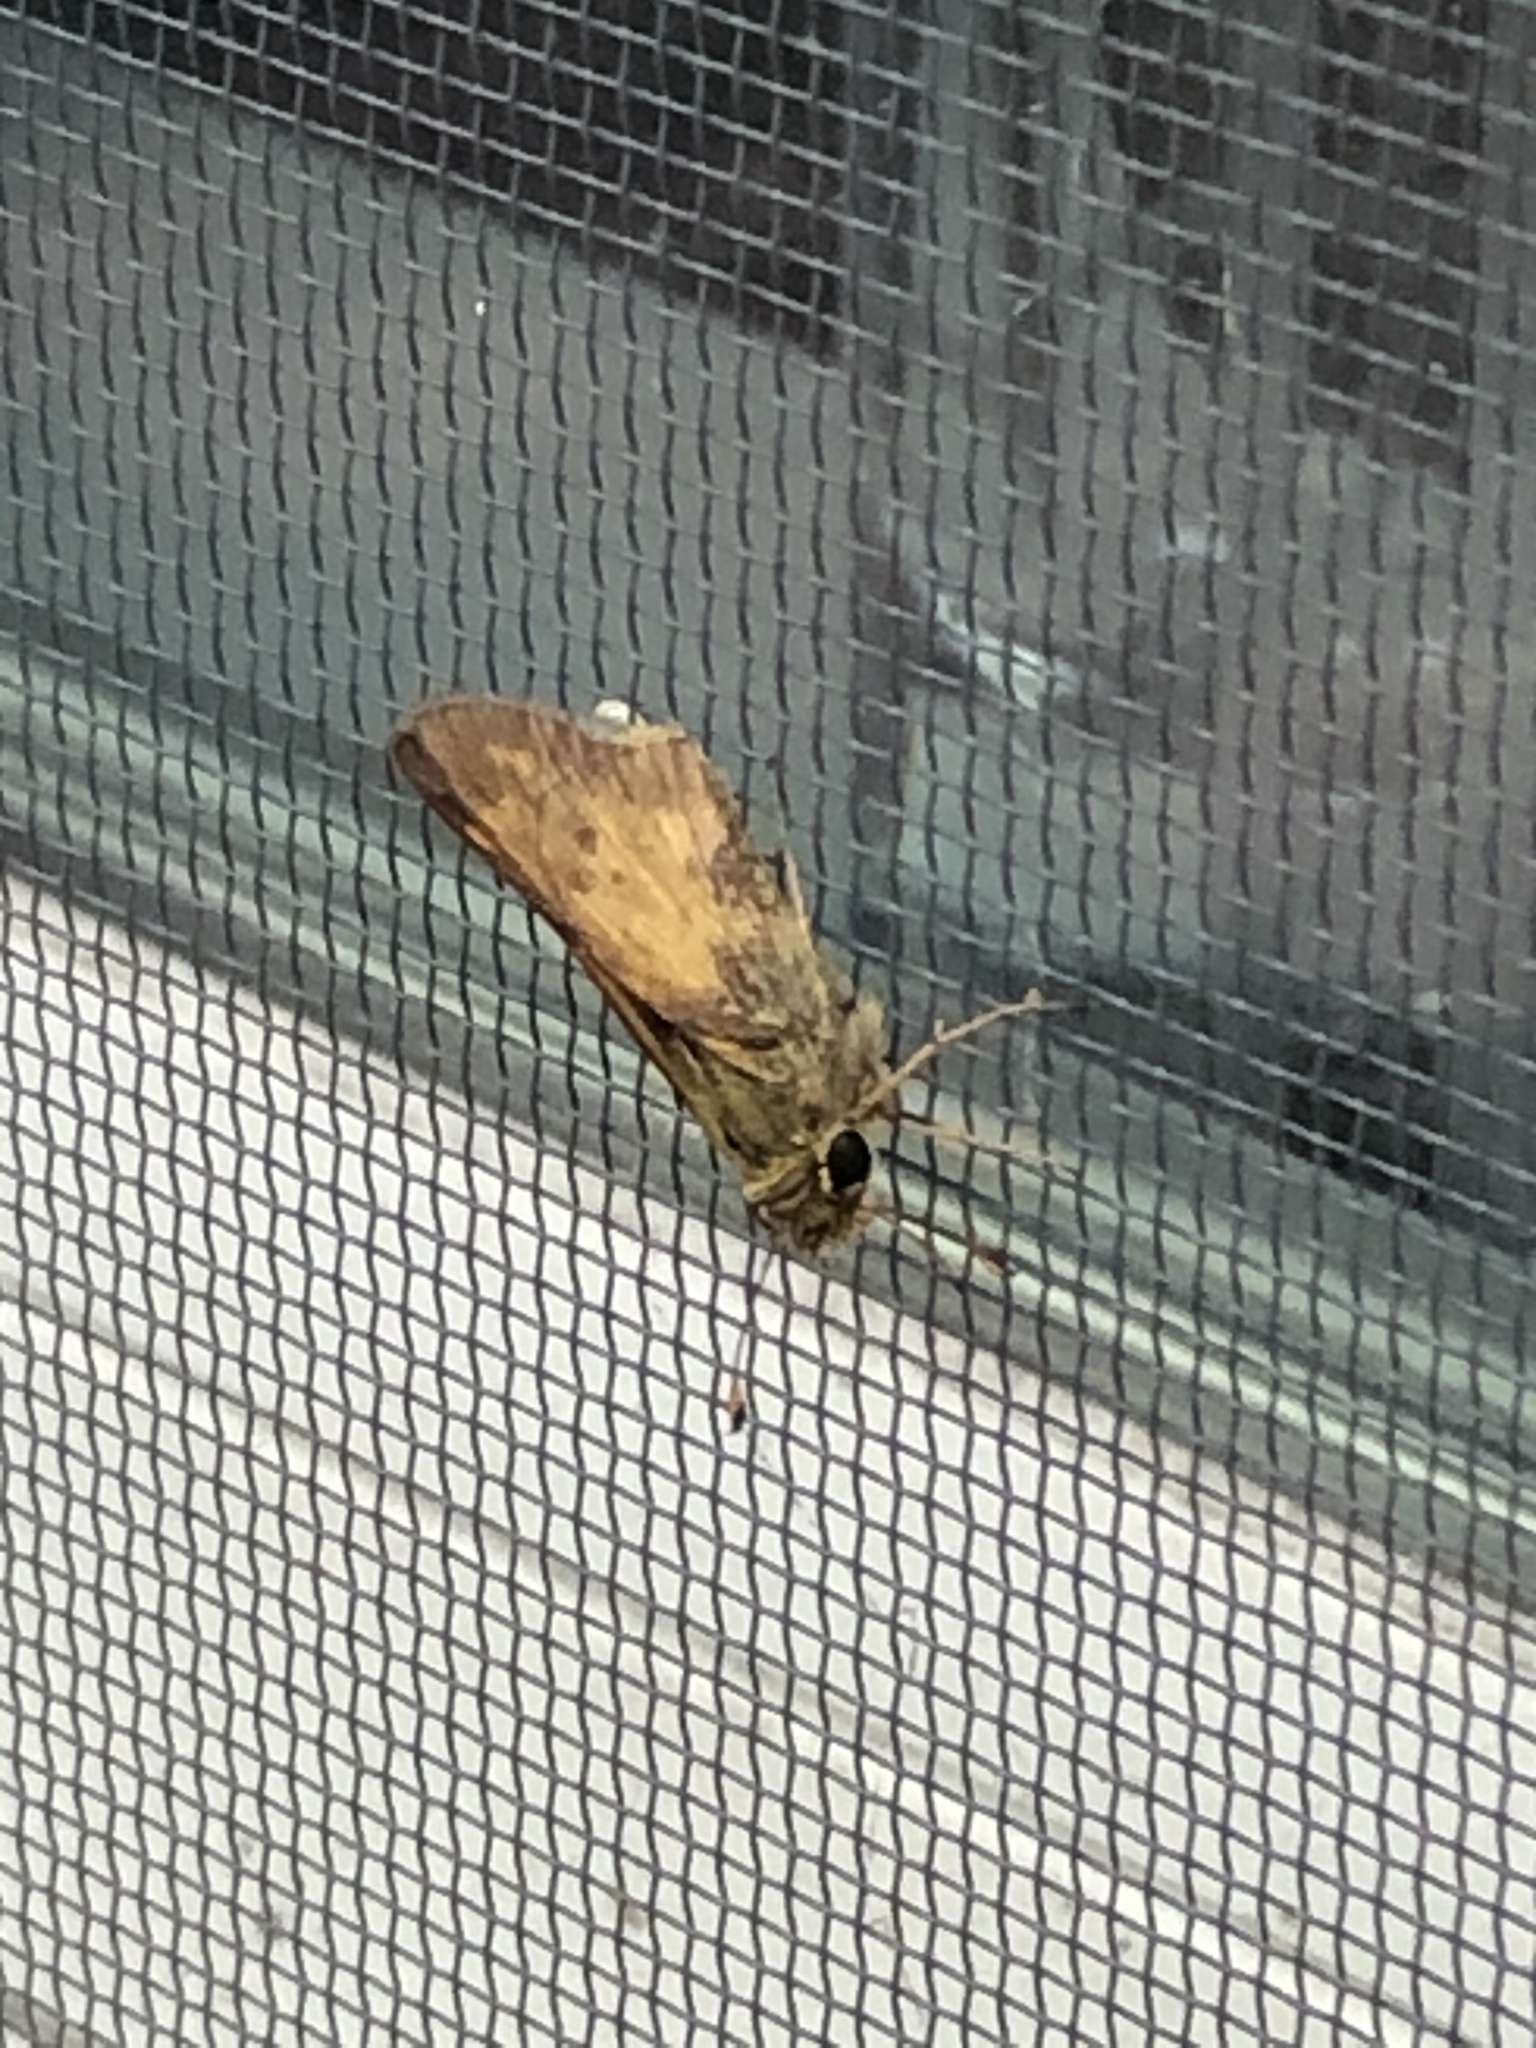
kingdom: Animalia
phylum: Arthropoda
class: Insecta
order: Lepidoptera
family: Hesperiidae
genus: Atalopedes
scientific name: Atalopedes
